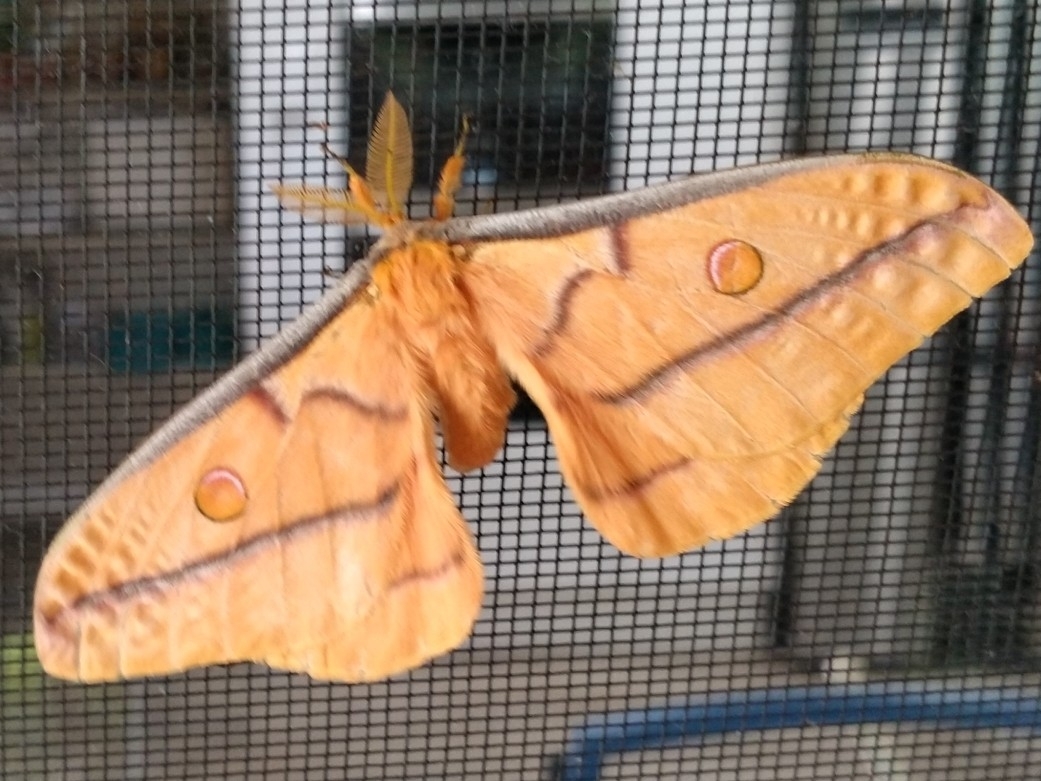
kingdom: Animalia
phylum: Arthropoda
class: Insecta
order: Lepidoptera
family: Saturniidae
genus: Opodiphthera
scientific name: Opodiphthera astrophela
